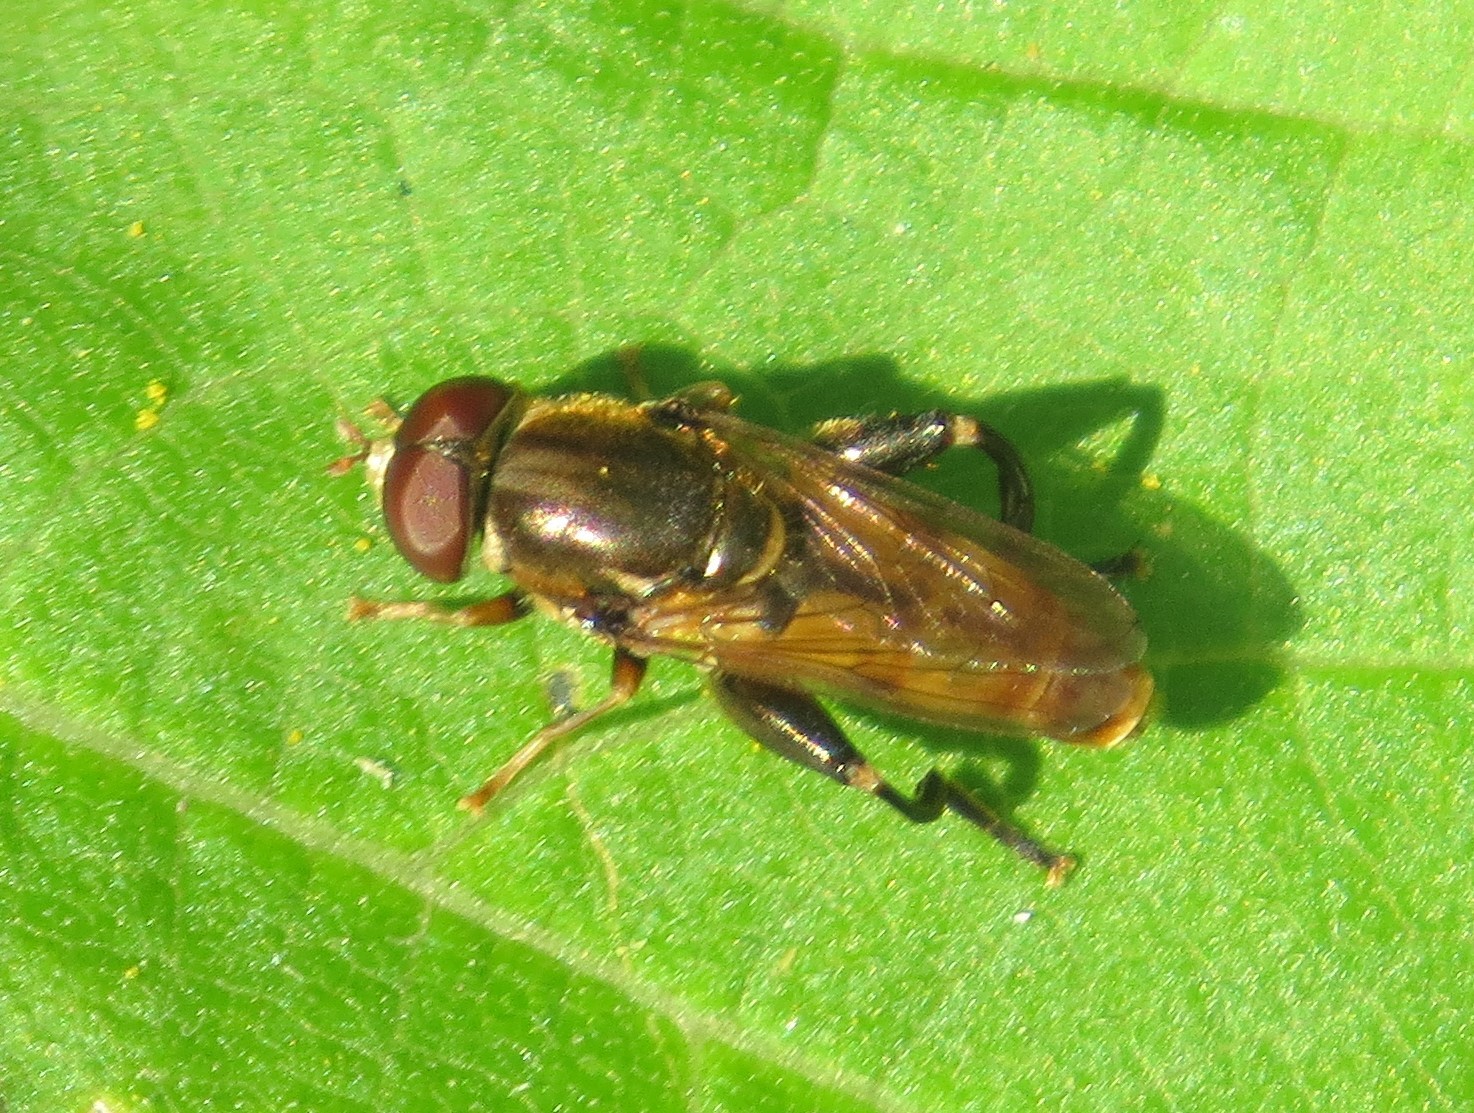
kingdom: Animalia
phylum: Arthropoda
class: Insecta
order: Diptera
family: Syrphidae
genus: Tropidia
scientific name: Tropidia quadrata
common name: Common thick-legged fly
